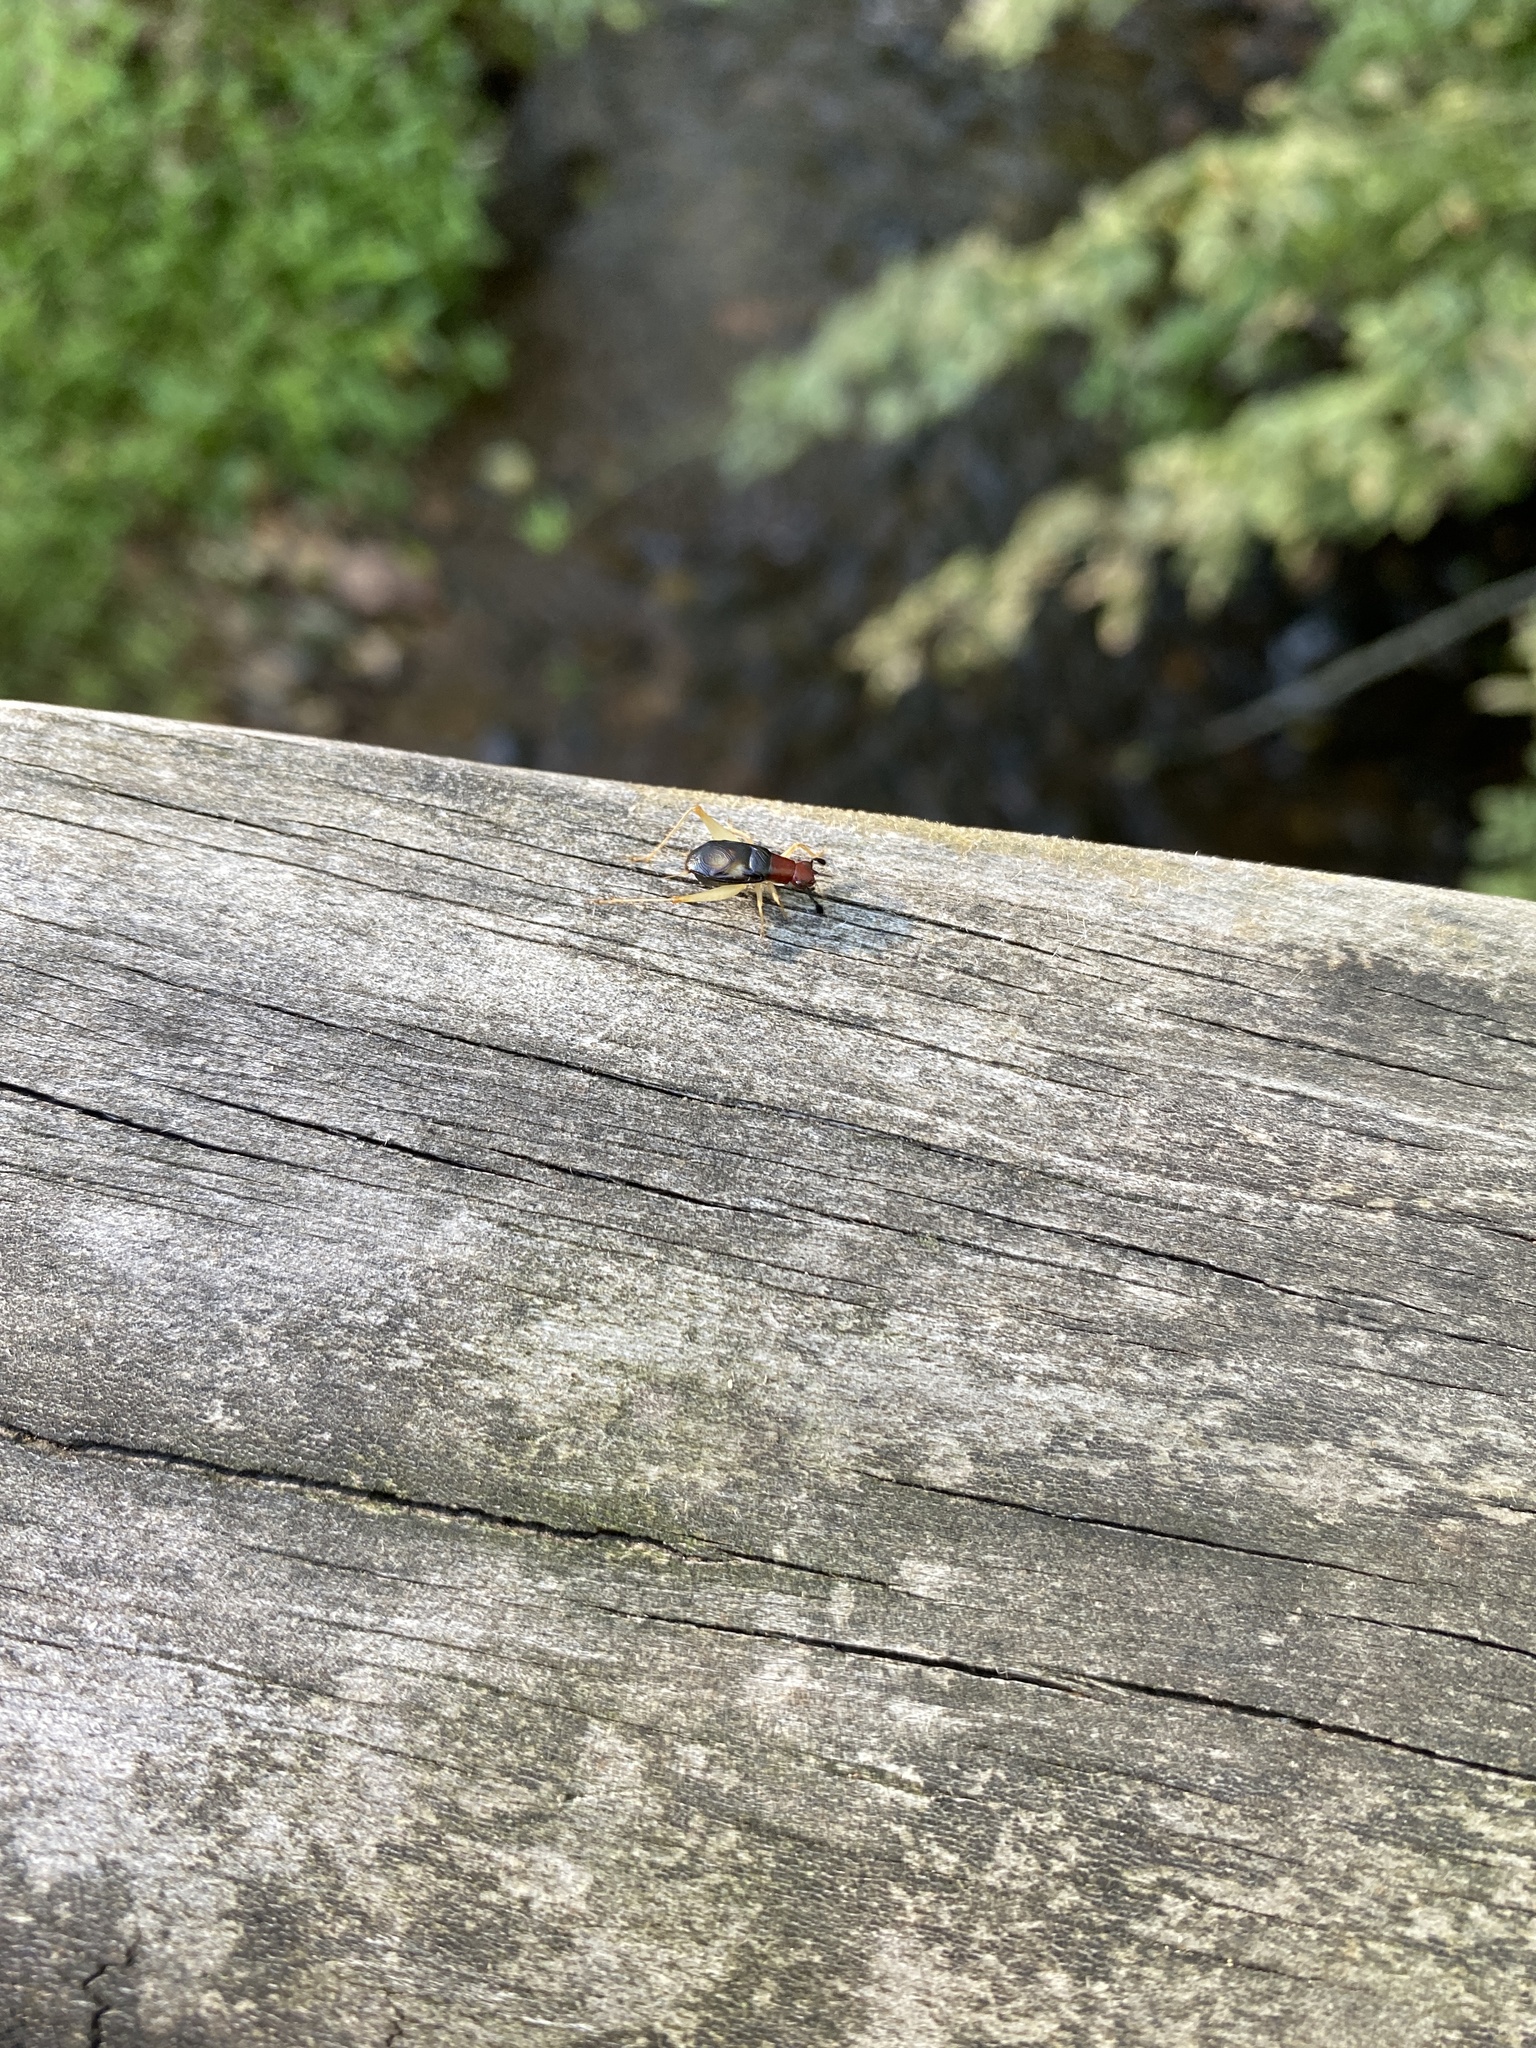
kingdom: Animalia
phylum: Arthropoda
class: Insecta
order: Orthoptera
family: Trigonidiidae
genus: Phyllopalpus
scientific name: Phyllopalpus pulchellus
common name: Handsome trig
